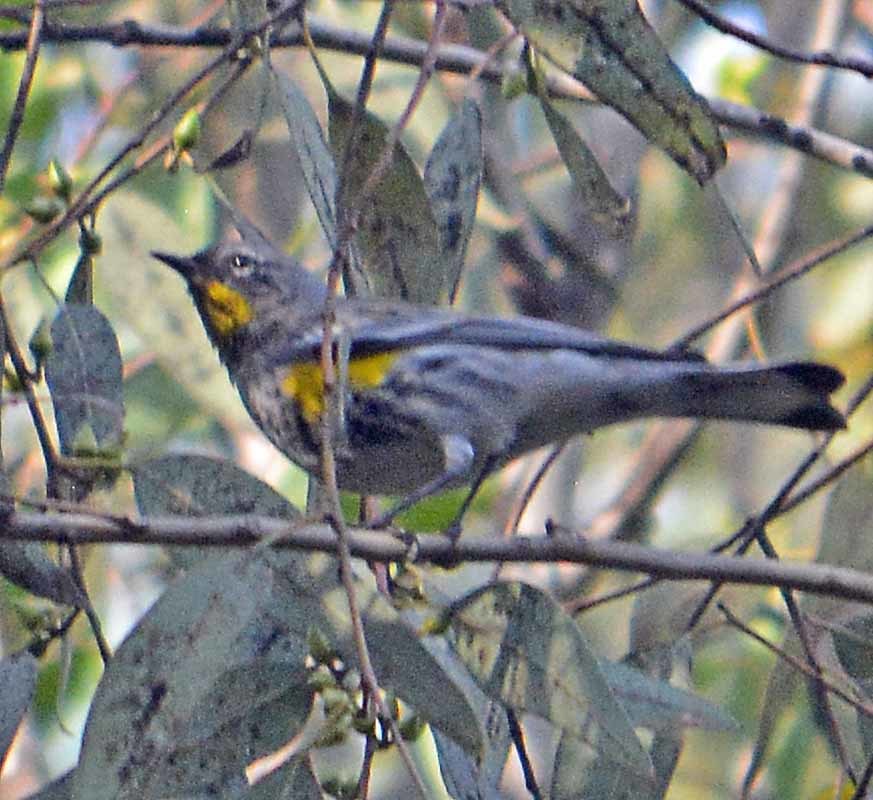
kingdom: Animalia
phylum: Chordata
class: Aves
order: Passeriformes
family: Parulidae
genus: Setophaga
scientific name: Setophaga auduboni
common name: Audubon's warbler
